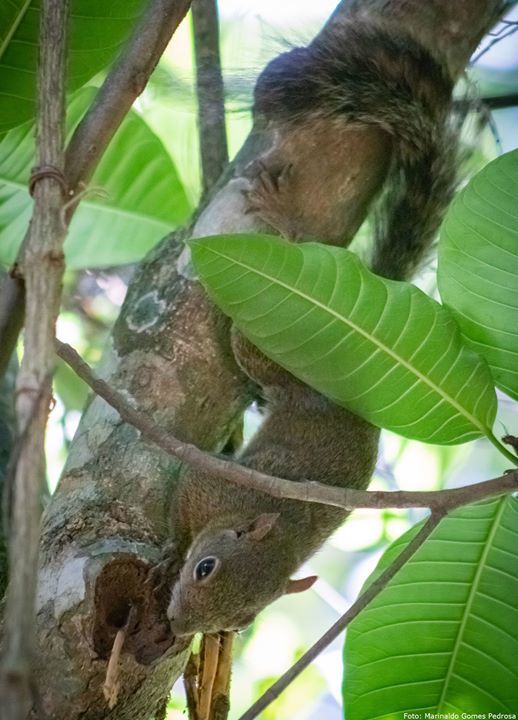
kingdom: Animalia
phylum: Chordata
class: Mammalia
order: Rodentia
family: Sciuridae
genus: Sciurus
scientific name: Sciurus aestuans
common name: Guianan squirrel
